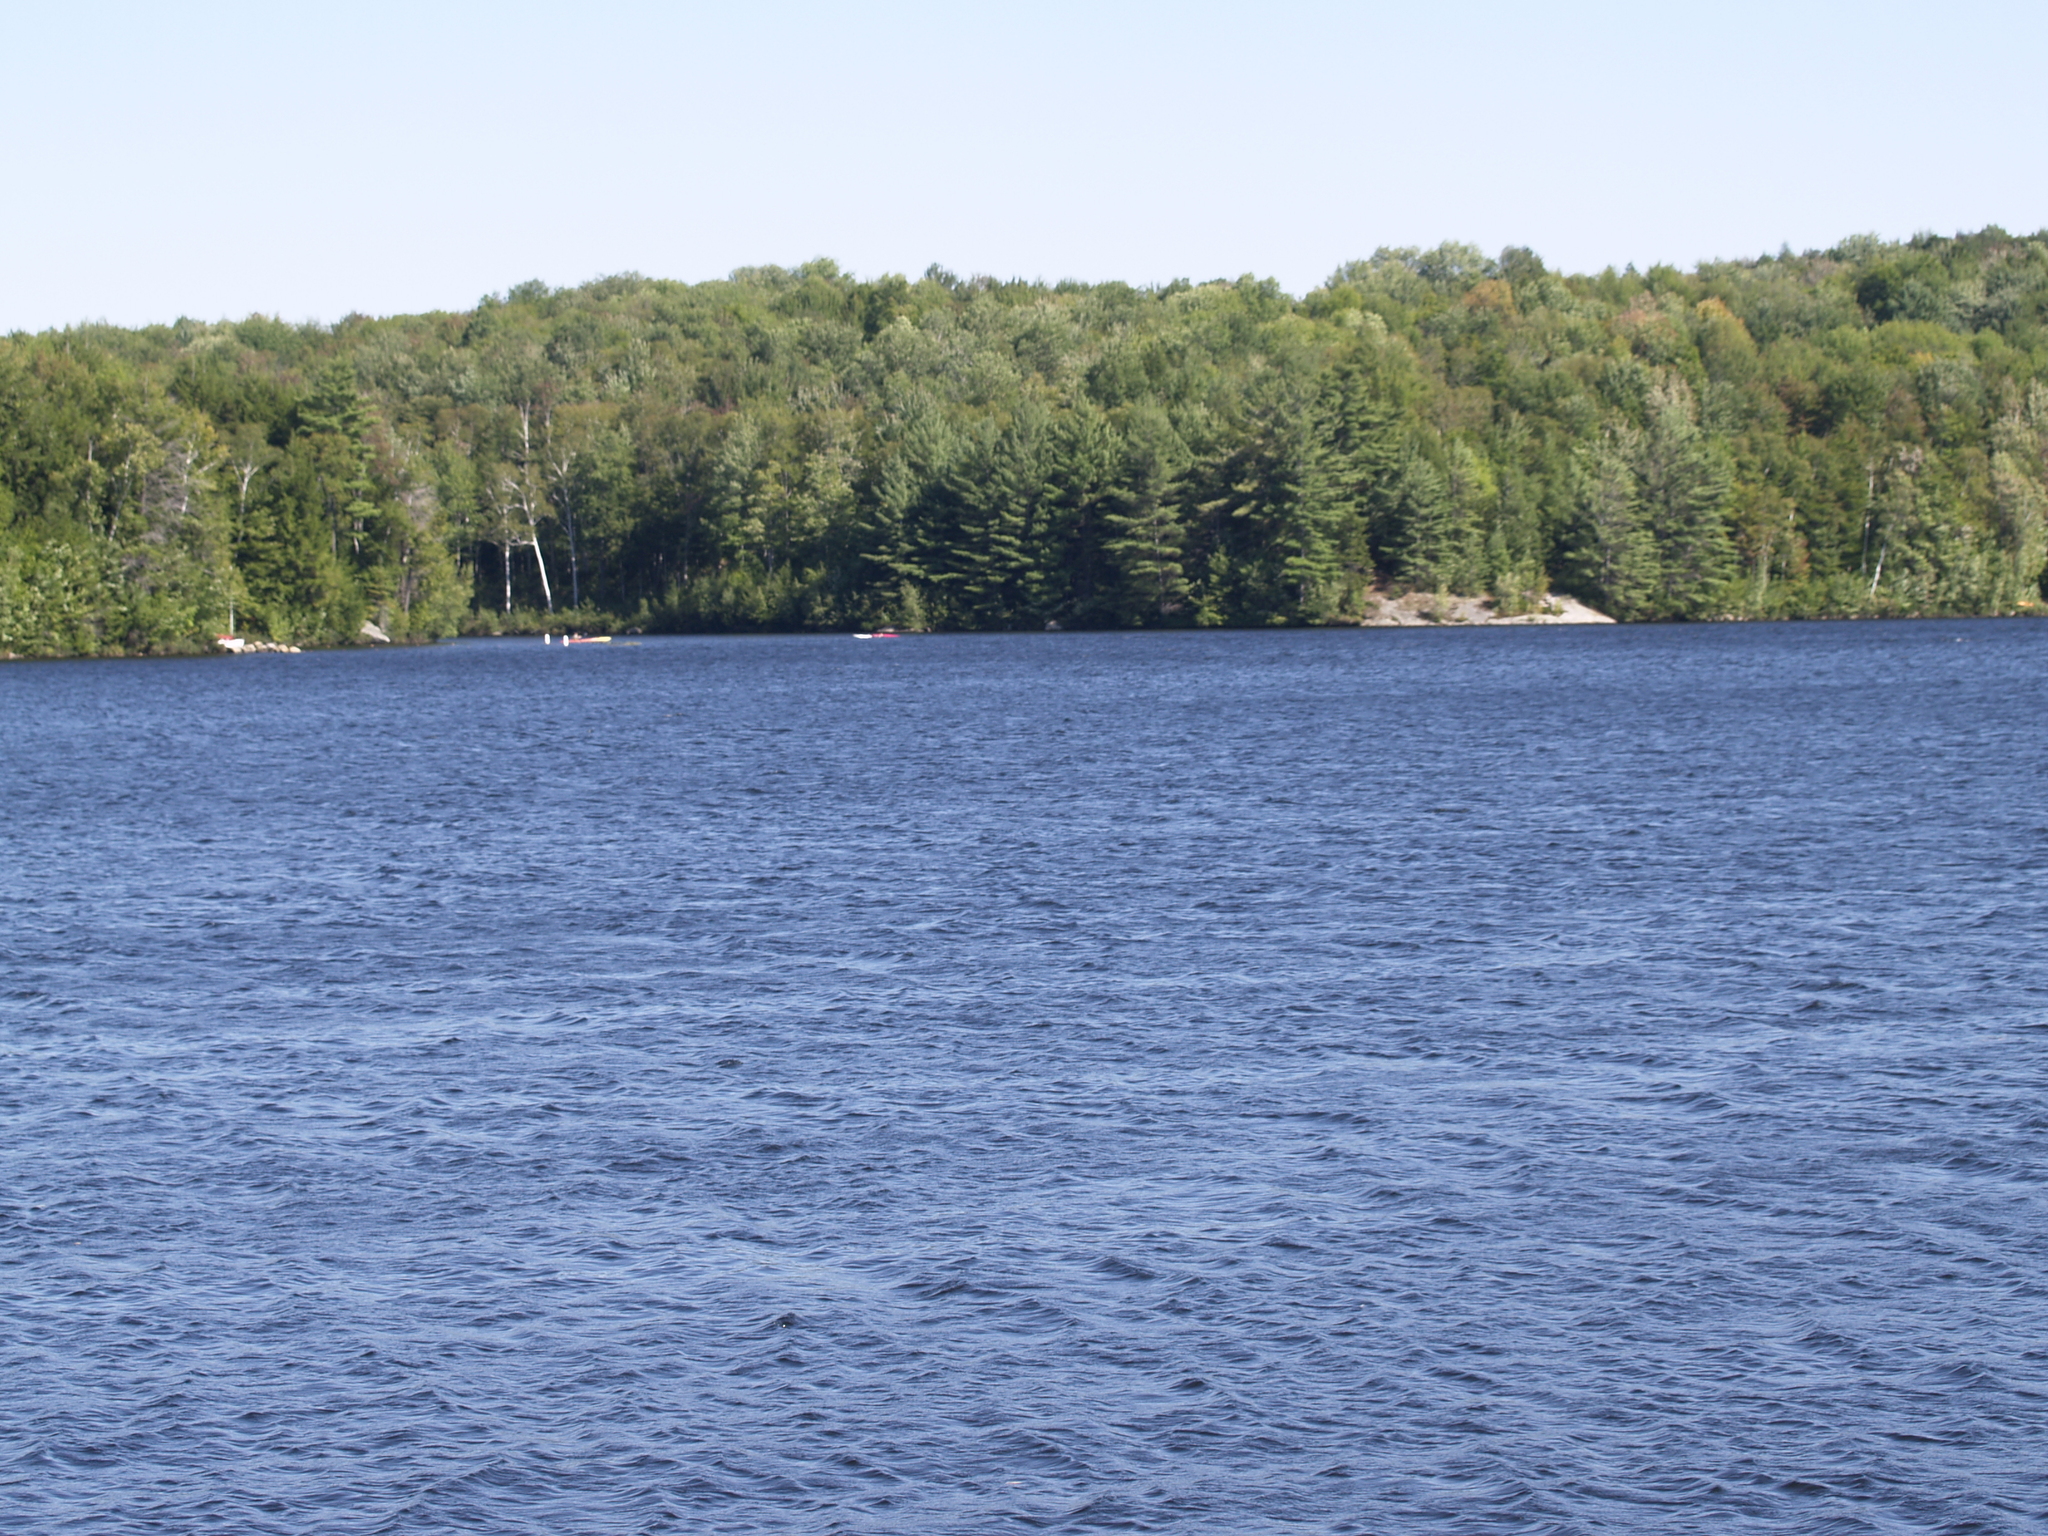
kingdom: Plantae
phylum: Tracheophyta
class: Pinopsida
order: Pinales
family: Pinaceae
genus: Pinus
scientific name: Pinus strobus
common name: Weymouth pine
